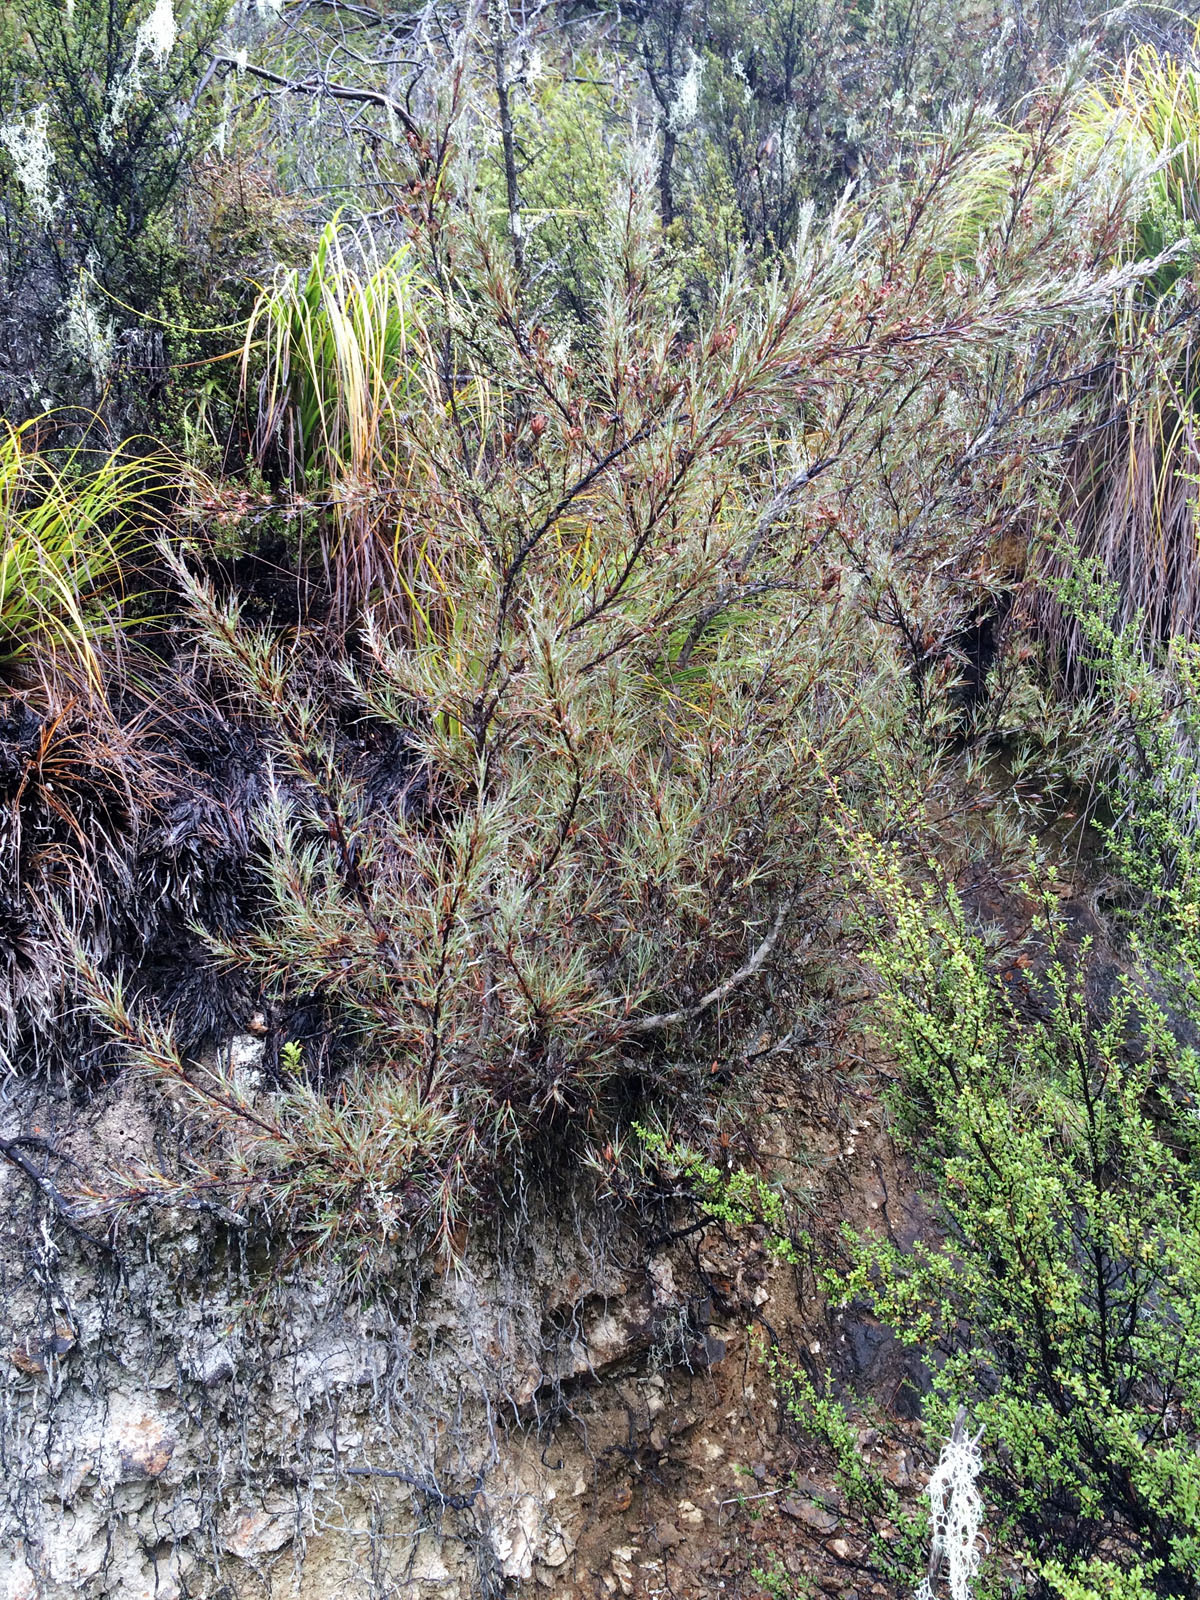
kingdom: Plantae
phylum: Tracheophyta
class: Magnoliopsida
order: Ericales
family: Ericaceae
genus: Dracophyllum
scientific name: Dracophyllum ophioliticum
